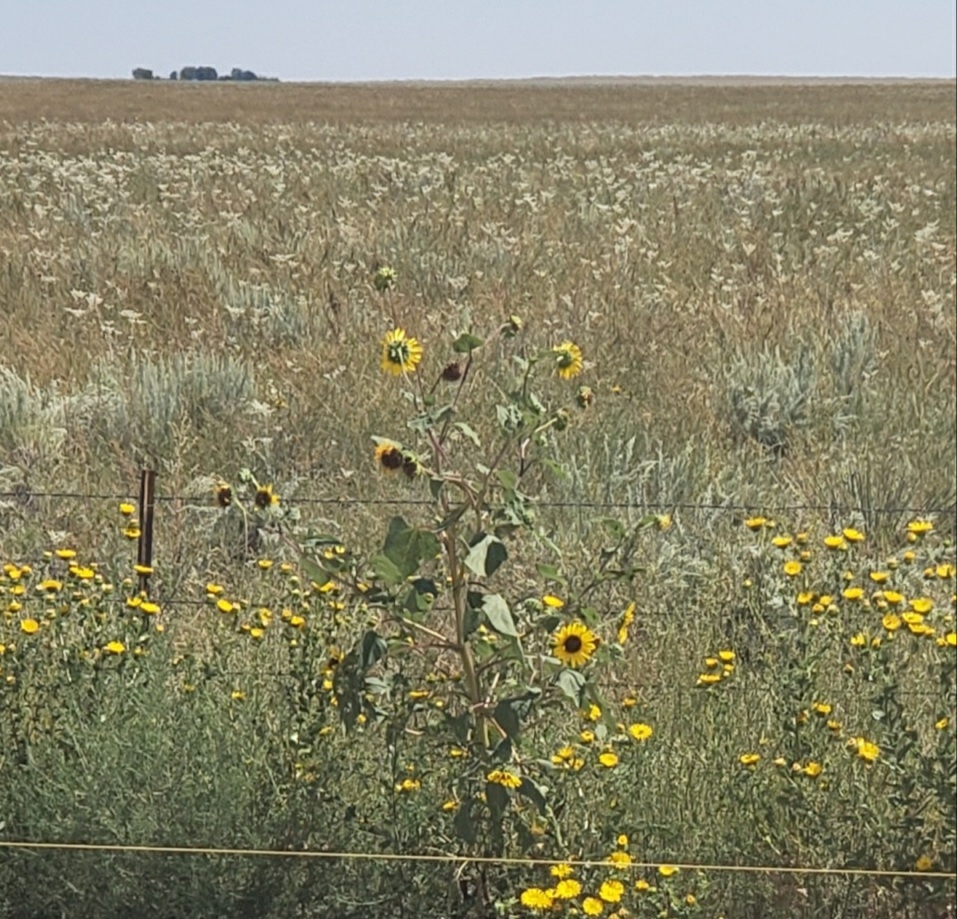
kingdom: Plantae
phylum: Tracheophyta
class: Magnoliopsida
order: Asterales
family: Asteraceae
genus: Helianthus
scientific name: Helianthus annuus
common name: Sunflower
